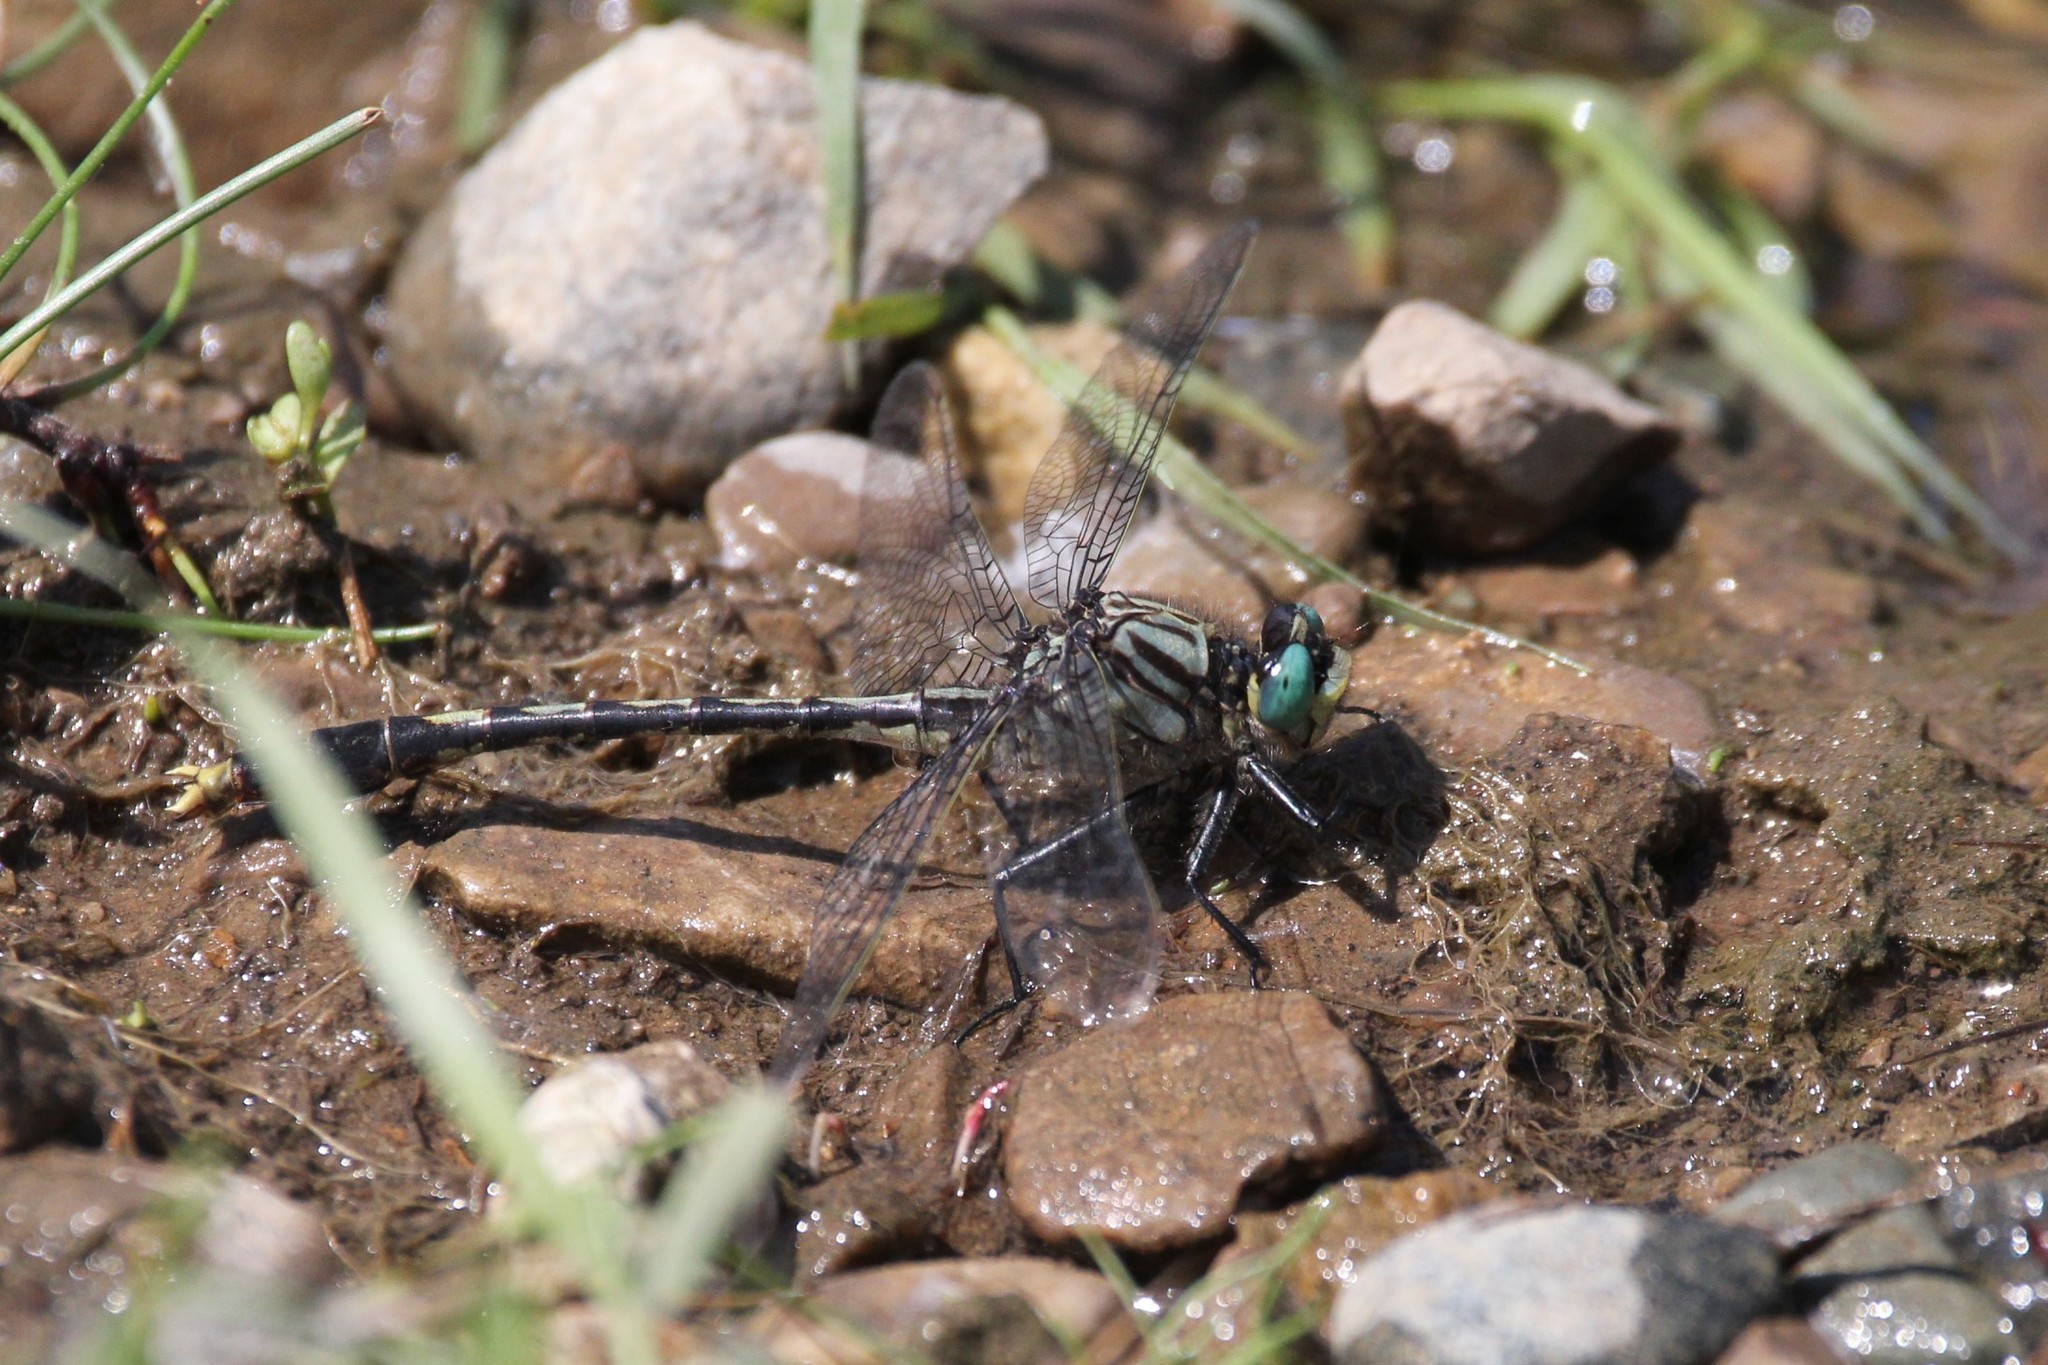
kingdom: Animalia
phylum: Arthropoda
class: Insecta
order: Odonata
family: Gomphidae
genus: Arigomphus
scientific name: Arigomphus villosipes
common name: Unicorn clubtail
